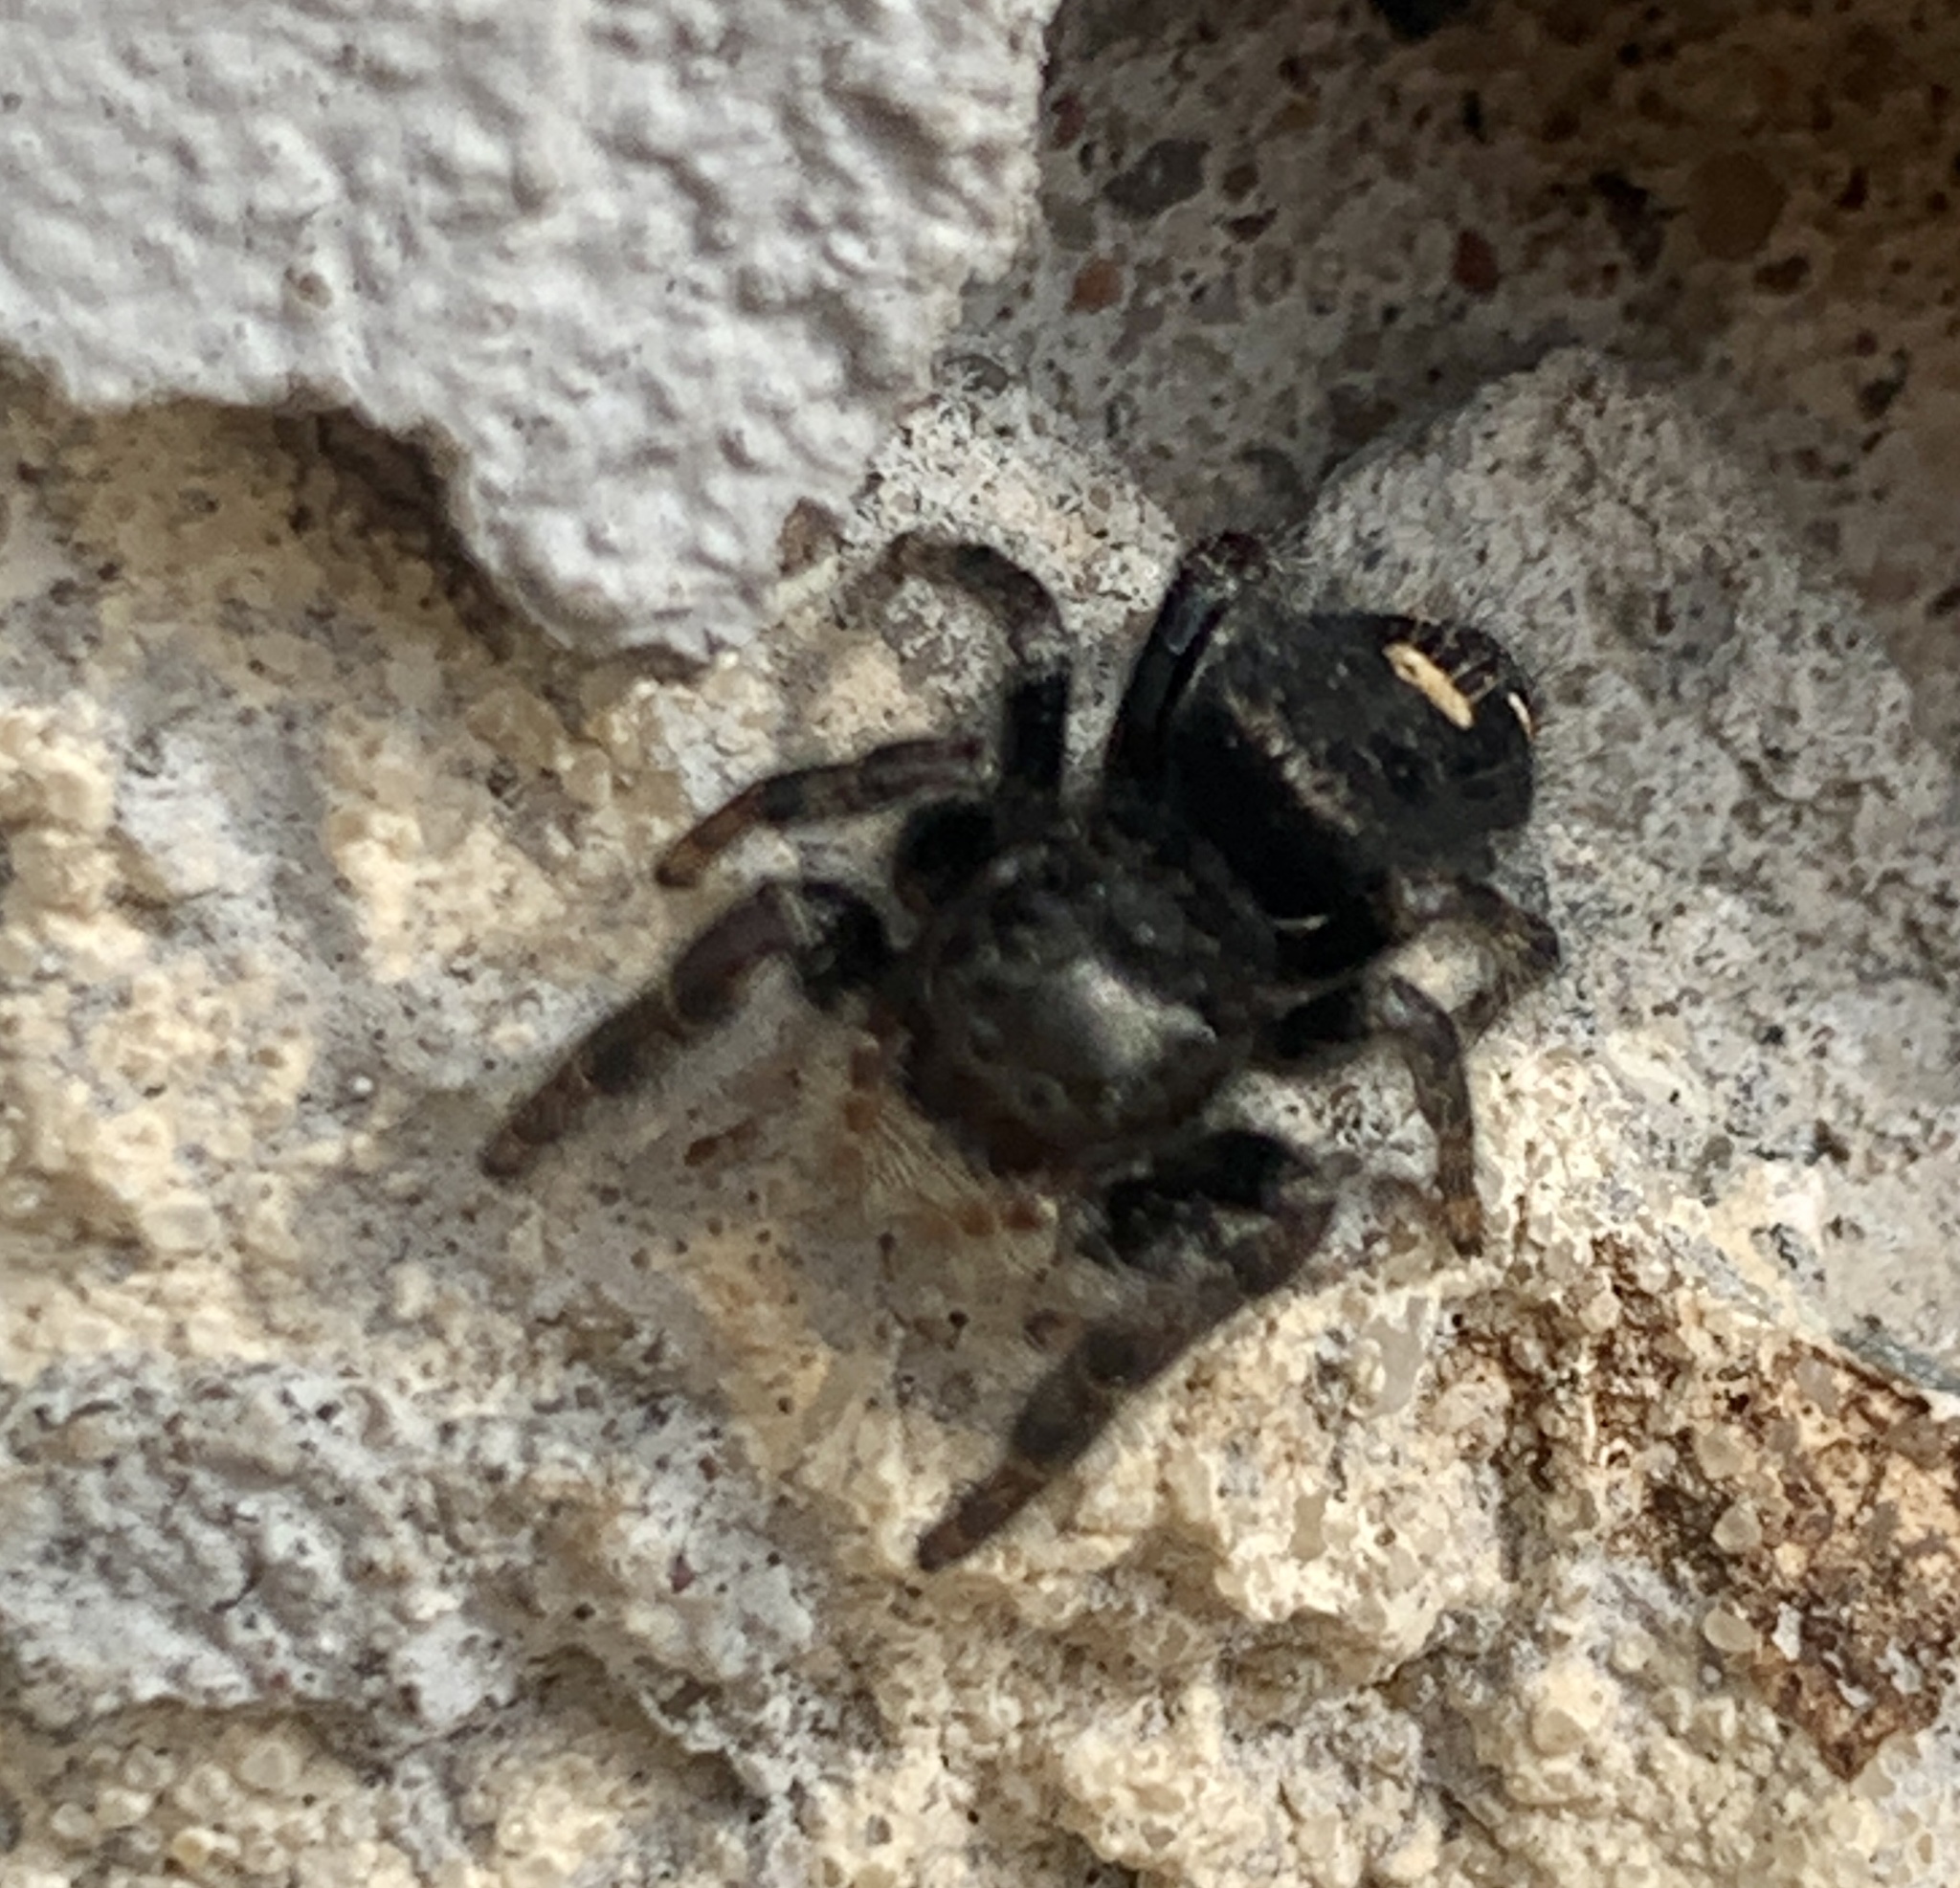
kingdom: Animalia
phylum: Arthropoda
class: Arachnida
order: Araneae
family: Salticidae
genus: Phidippus
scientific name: Phidippus audax
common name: Bold jumper
